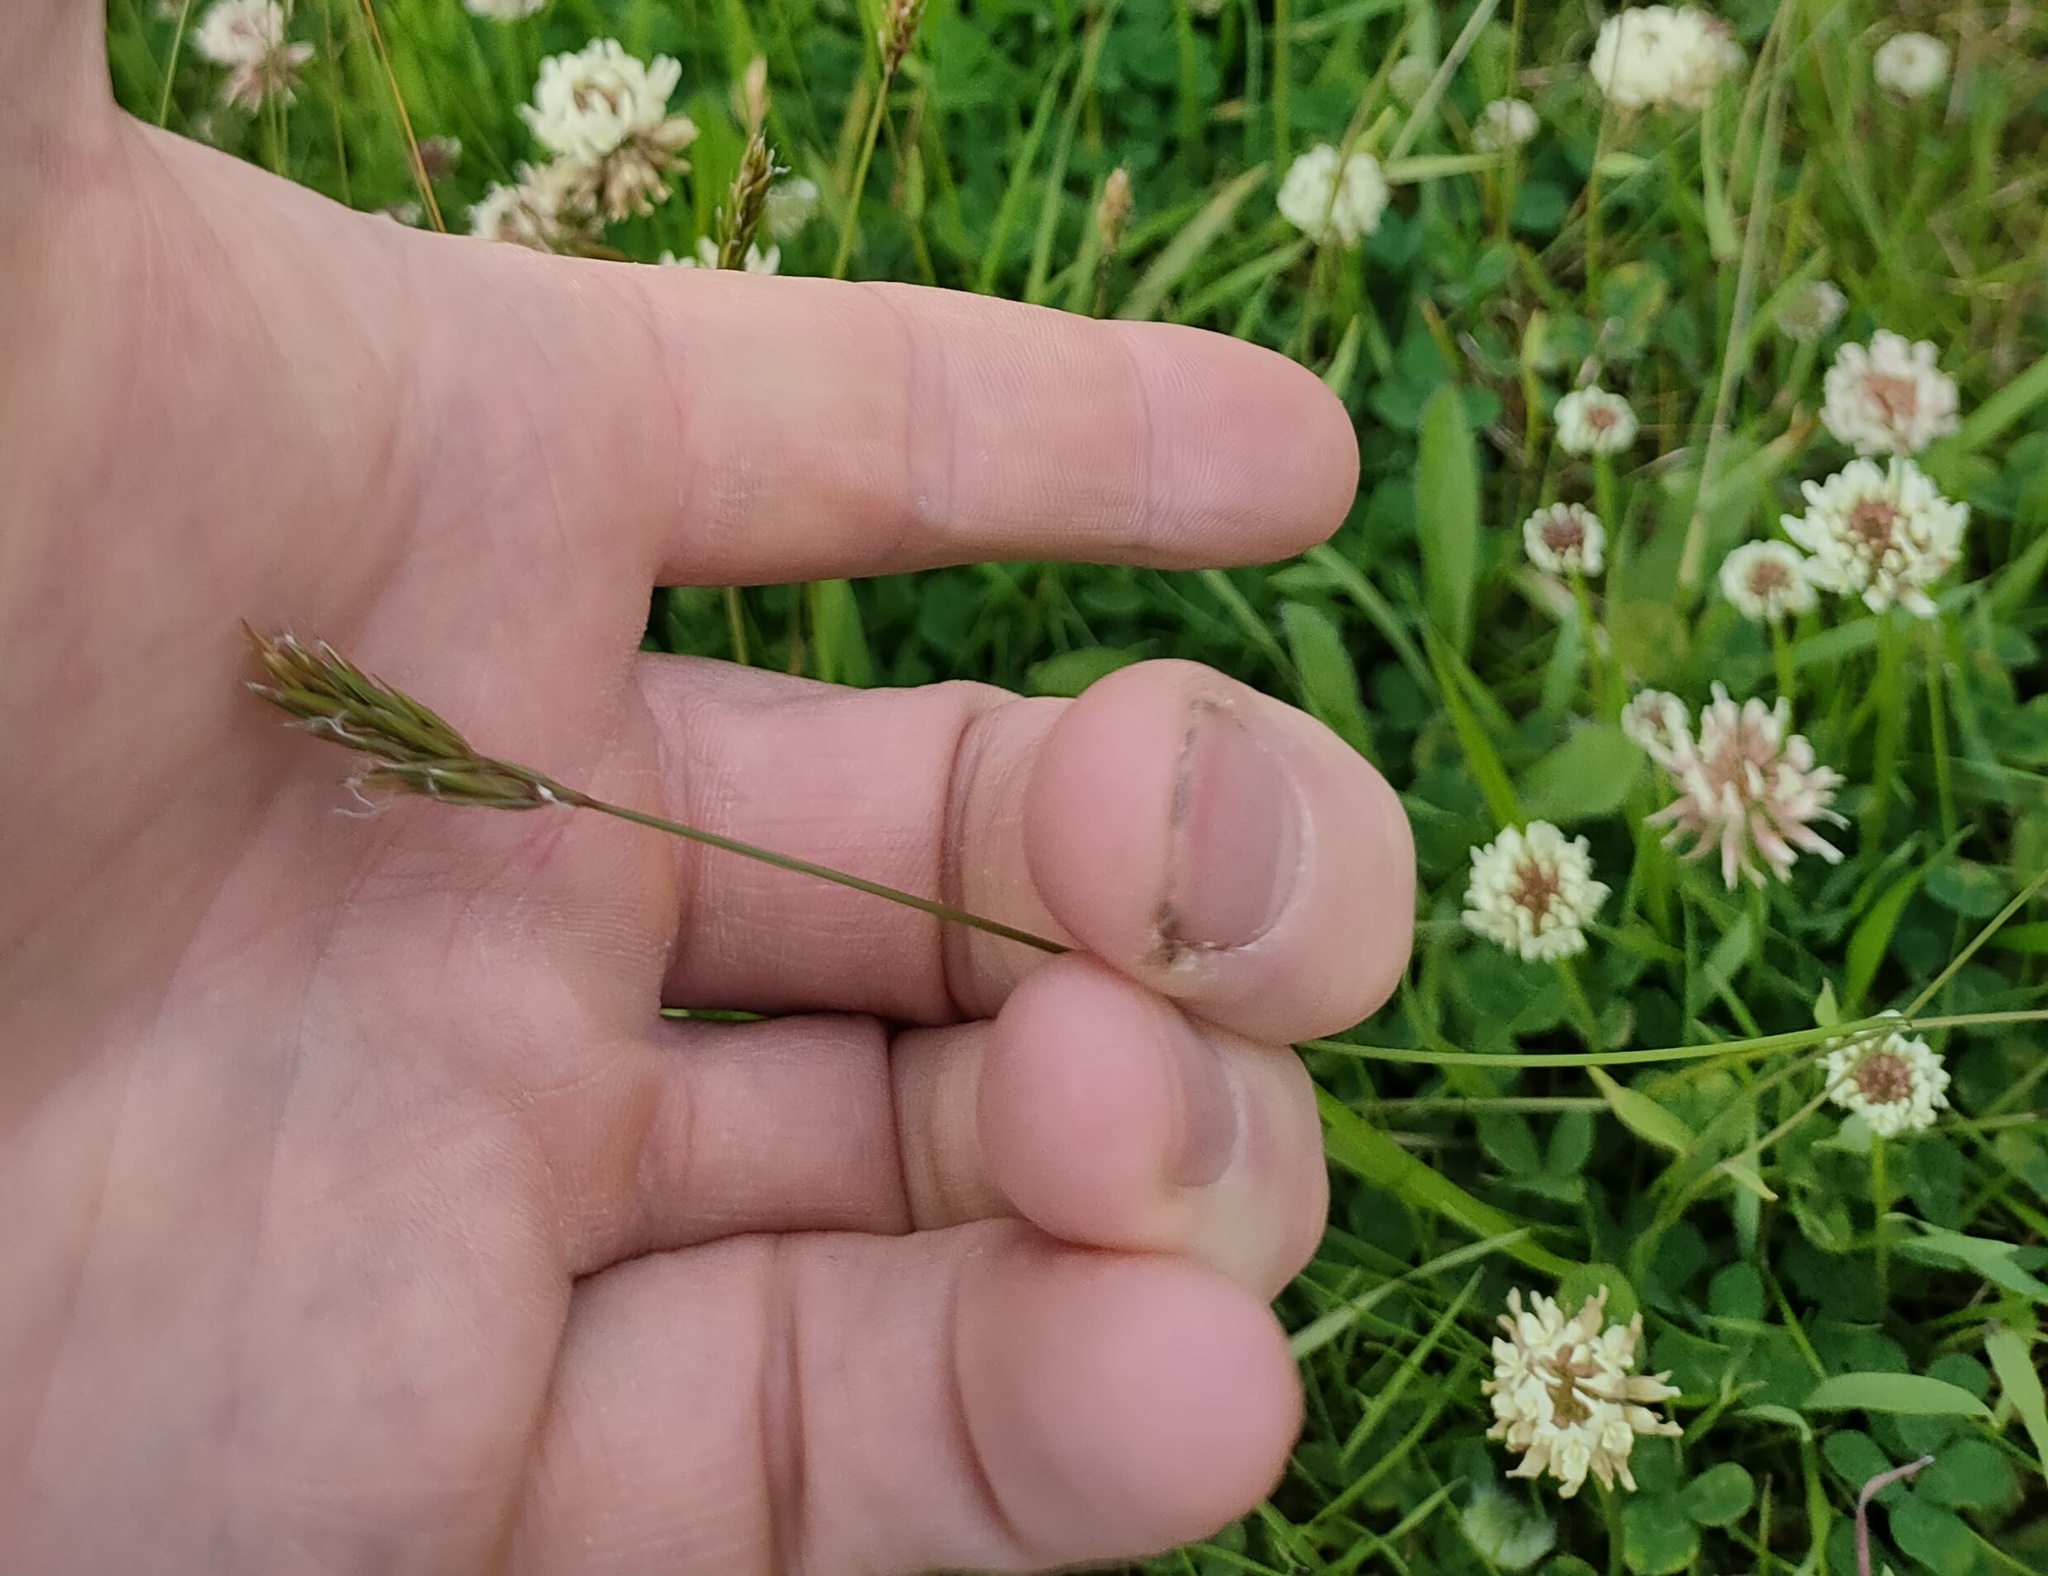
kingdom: Plantae
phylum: Tracheophyta
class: Liliopsida
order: Poales
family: Poaceae
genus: Anthoxanthum
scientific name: Anthoxanthum odoratum
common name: Sweet vernalgrass
